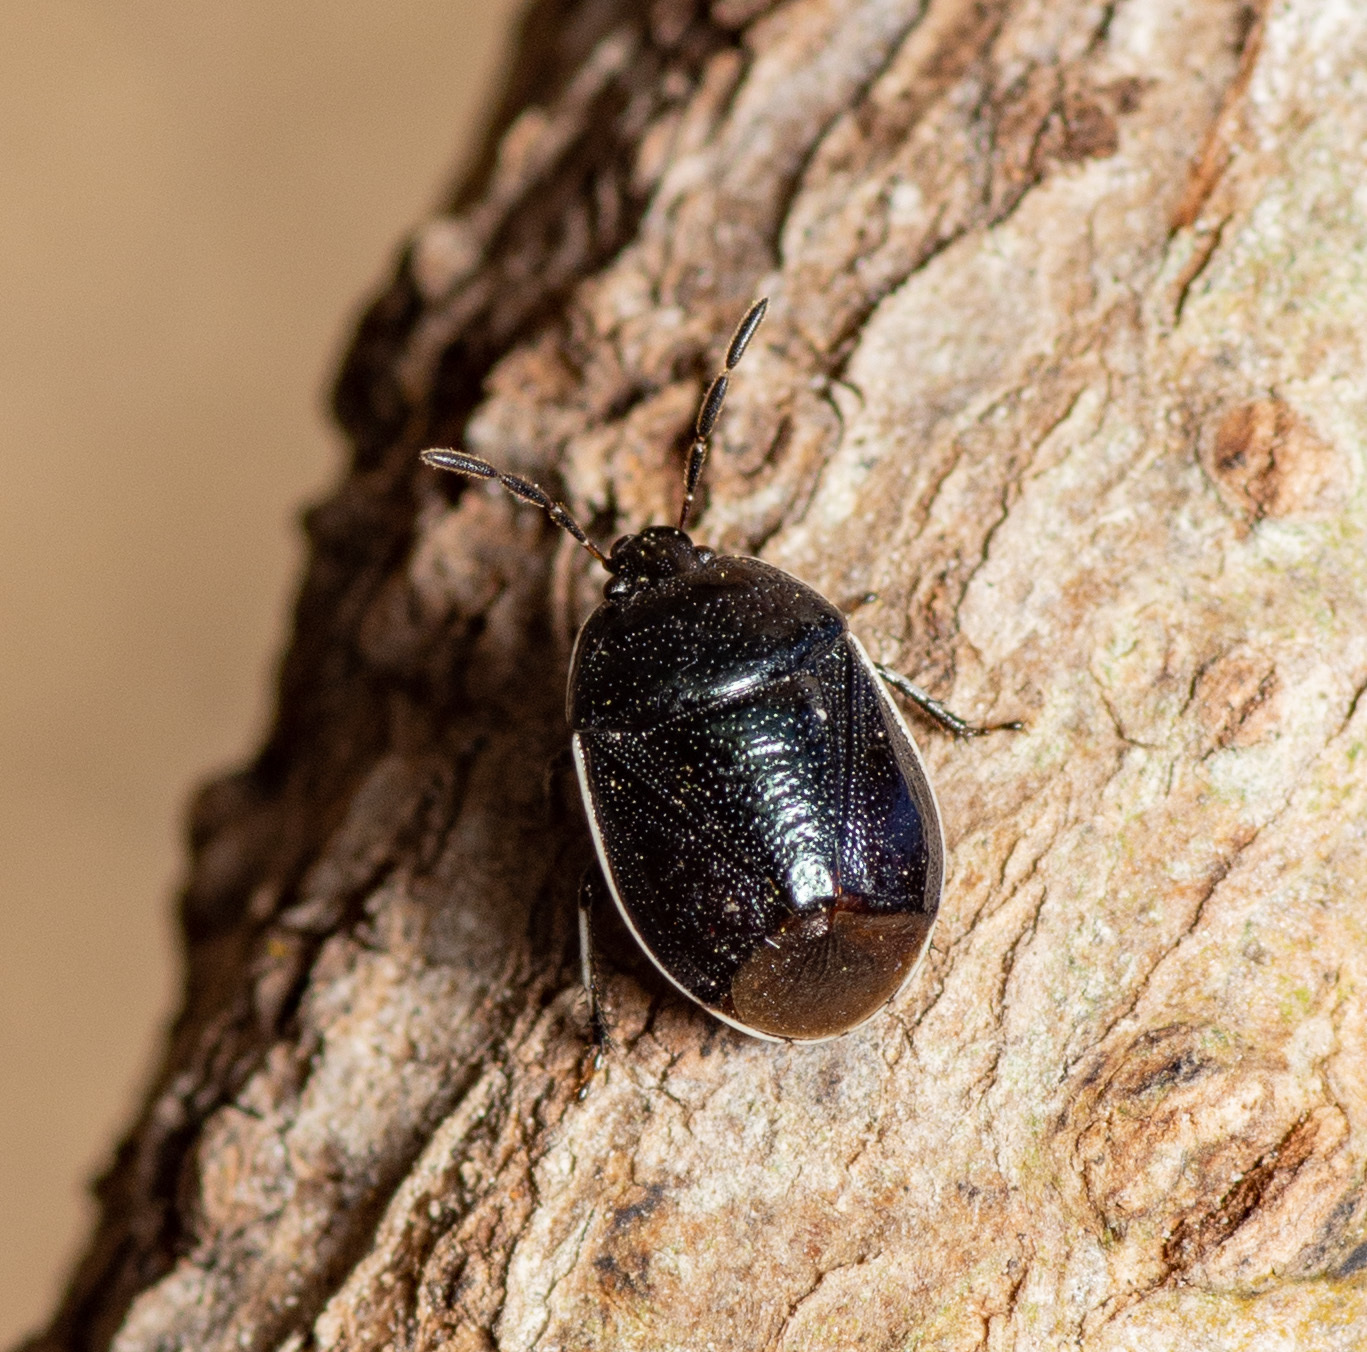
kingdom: Animalia
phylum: Arthropoda
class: Insecta
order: Hemiptera
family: Cydnidae
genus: Sehirus
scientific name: Sehirus cinctus
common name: White-margined burrower bug
